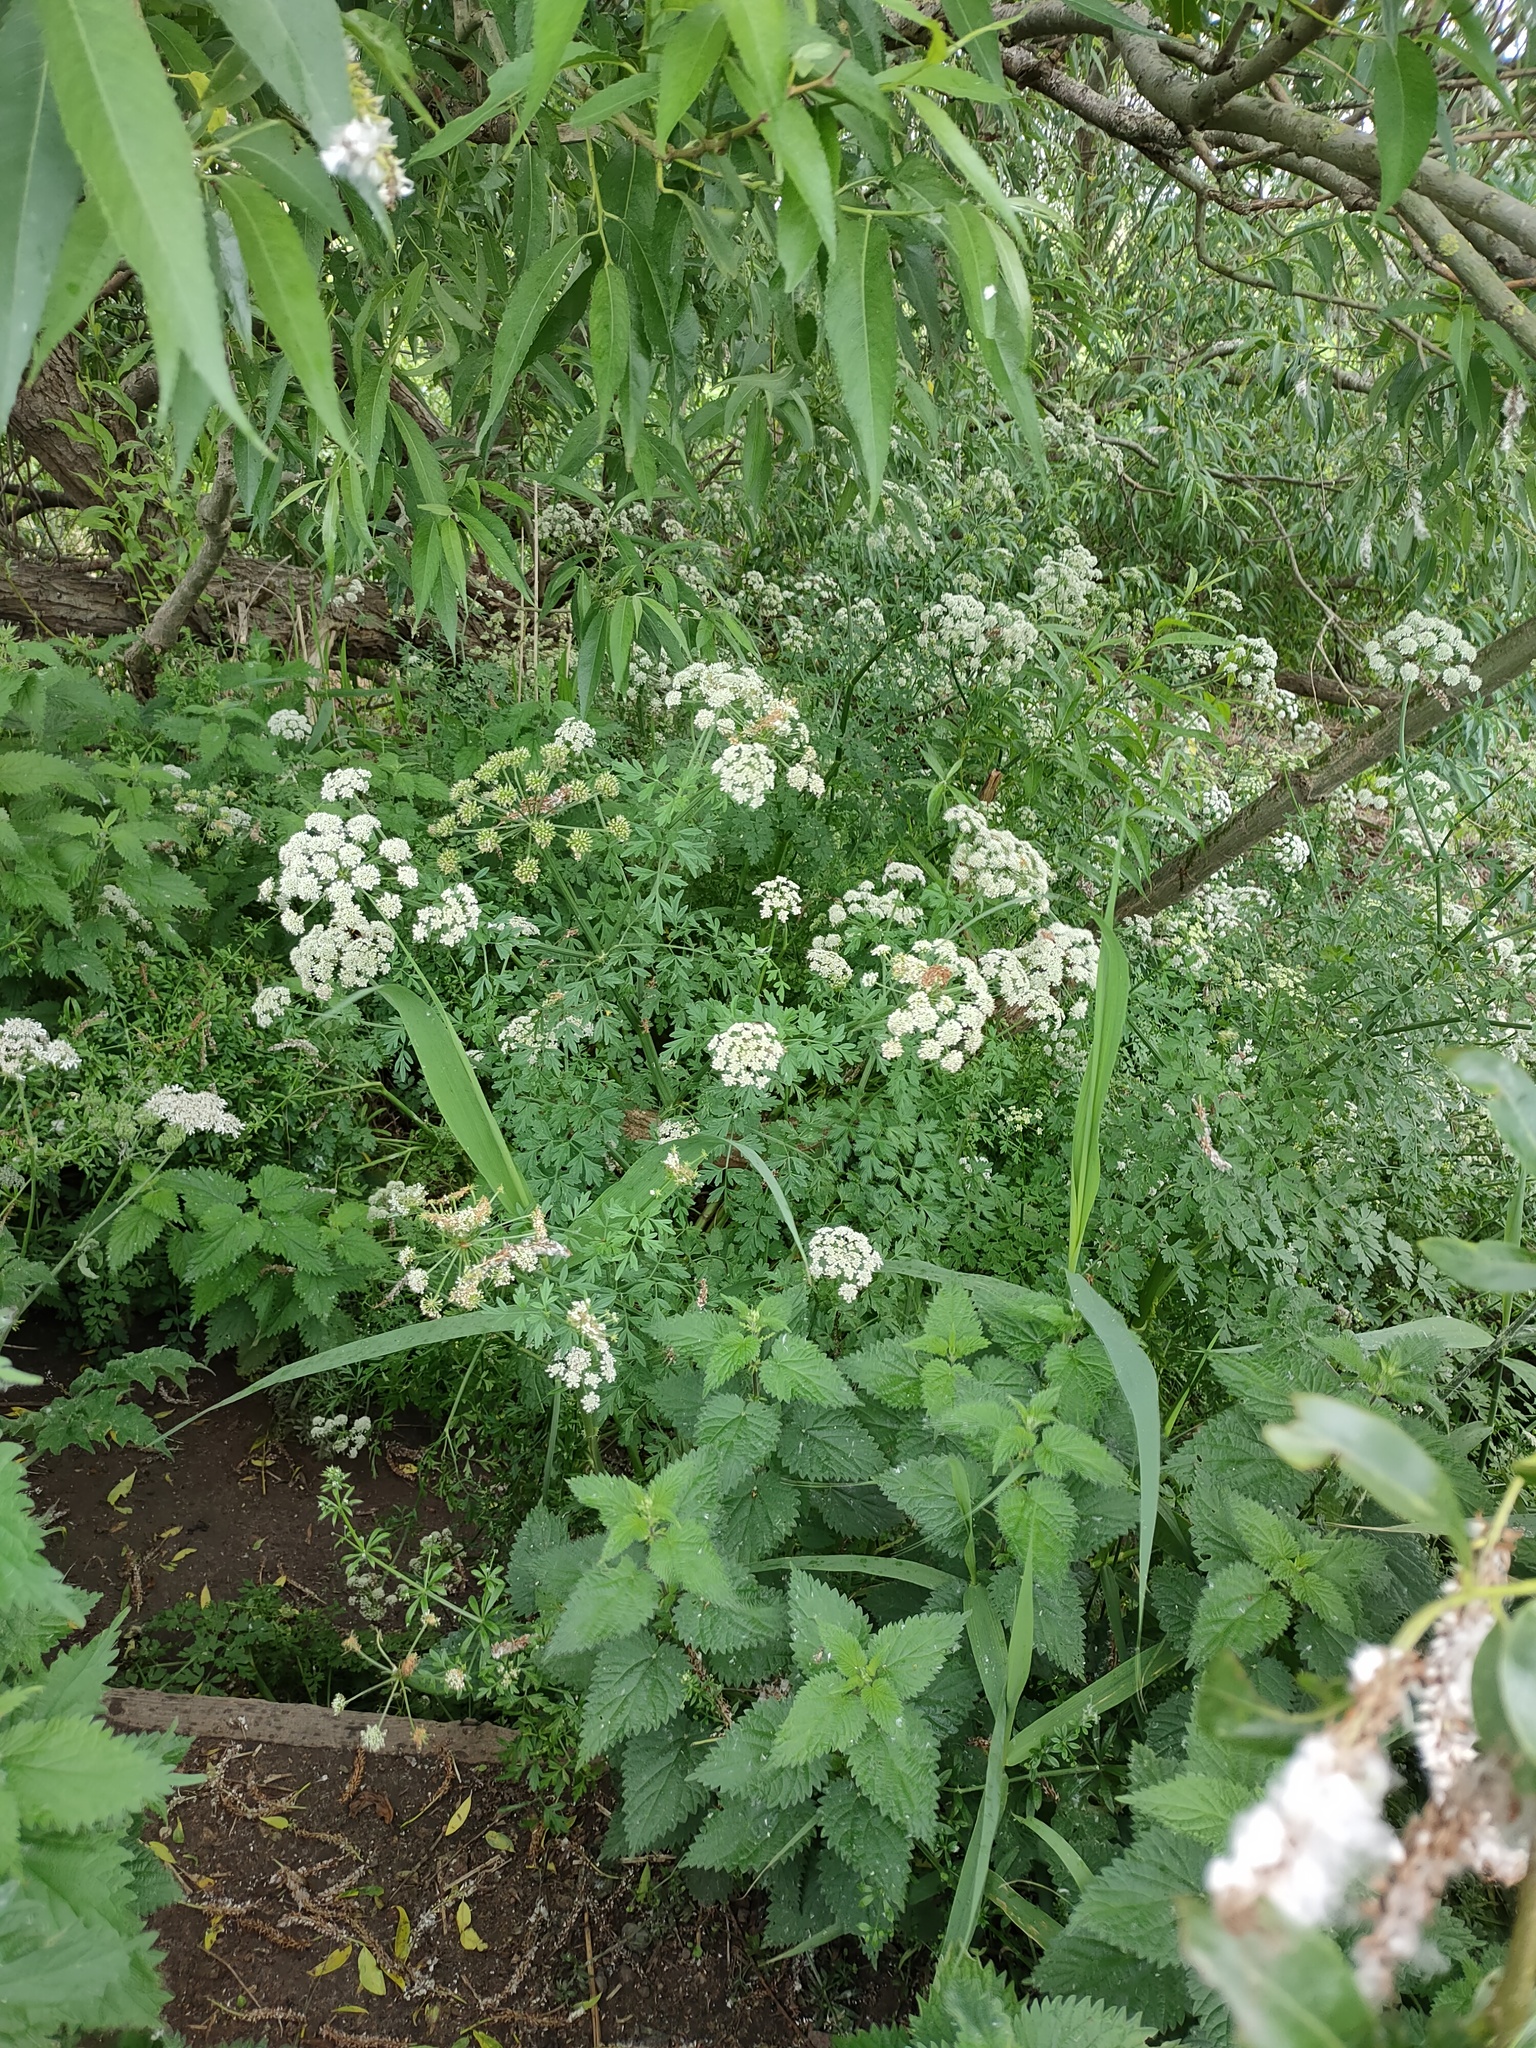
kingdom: Plantae
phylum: Tracheophyta
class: Magnoliopsida
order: Apiales
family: Apiaceae
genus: Oenanthe
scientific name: Oenanthe crocata
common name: Hemlock water-dropwort
